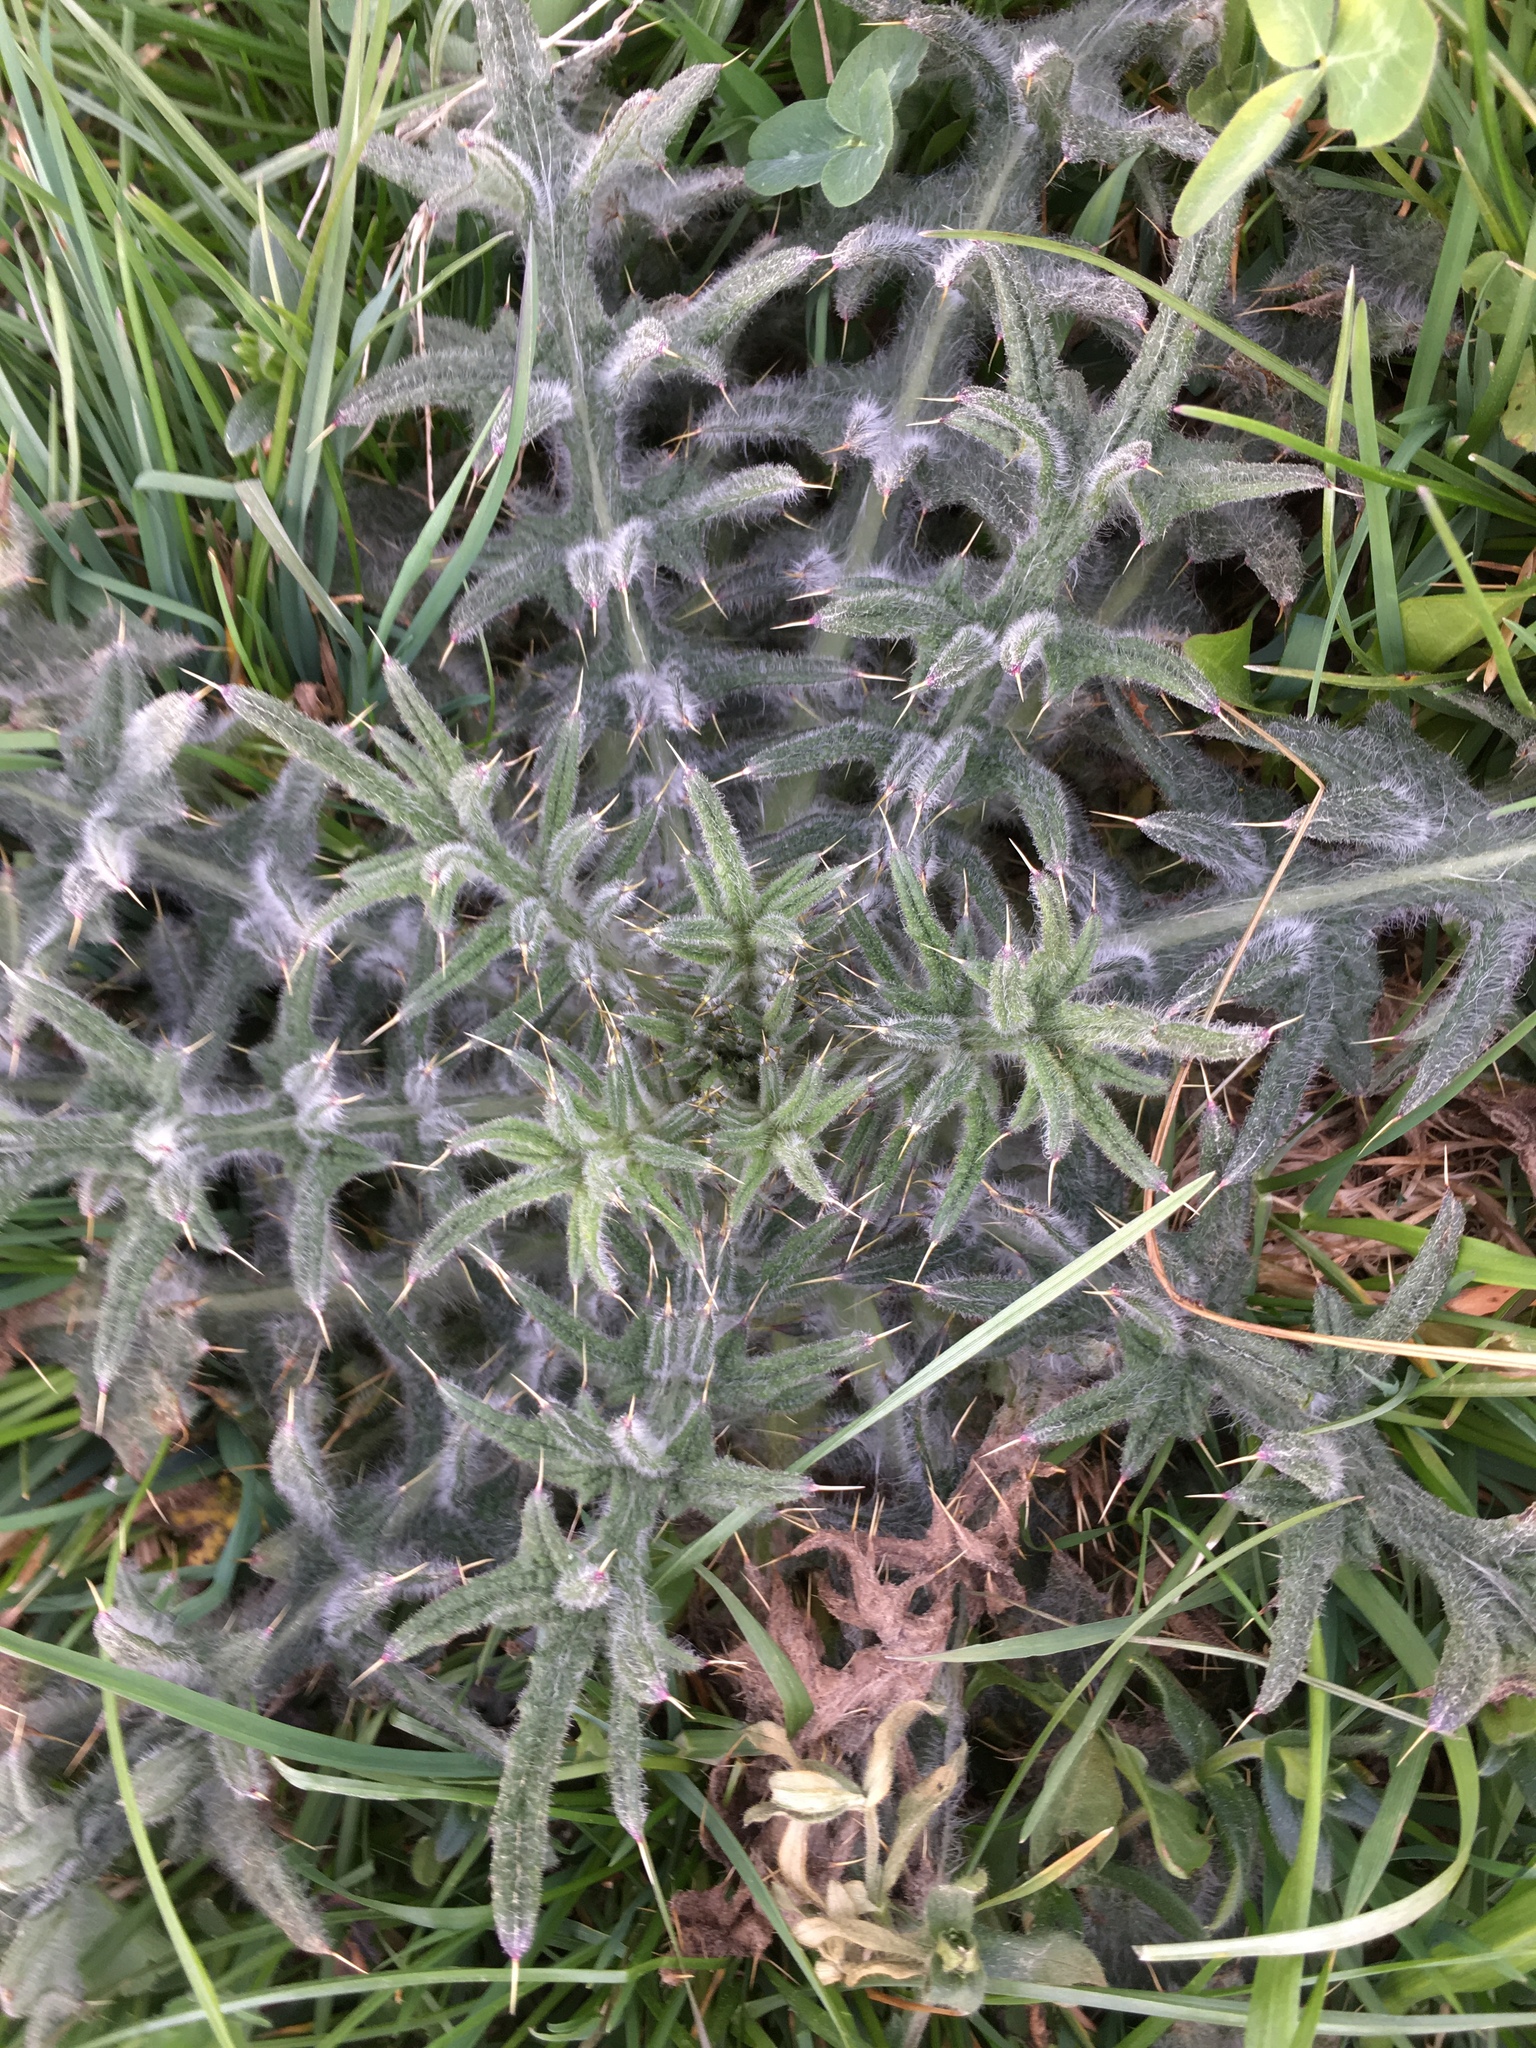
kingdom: Plantae
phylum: Tracheophyta
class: Magnoliopsida
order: Asterales
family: Asteraceae
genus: Cirsium
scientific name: Cirsium vulgare
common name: Bull thistle
